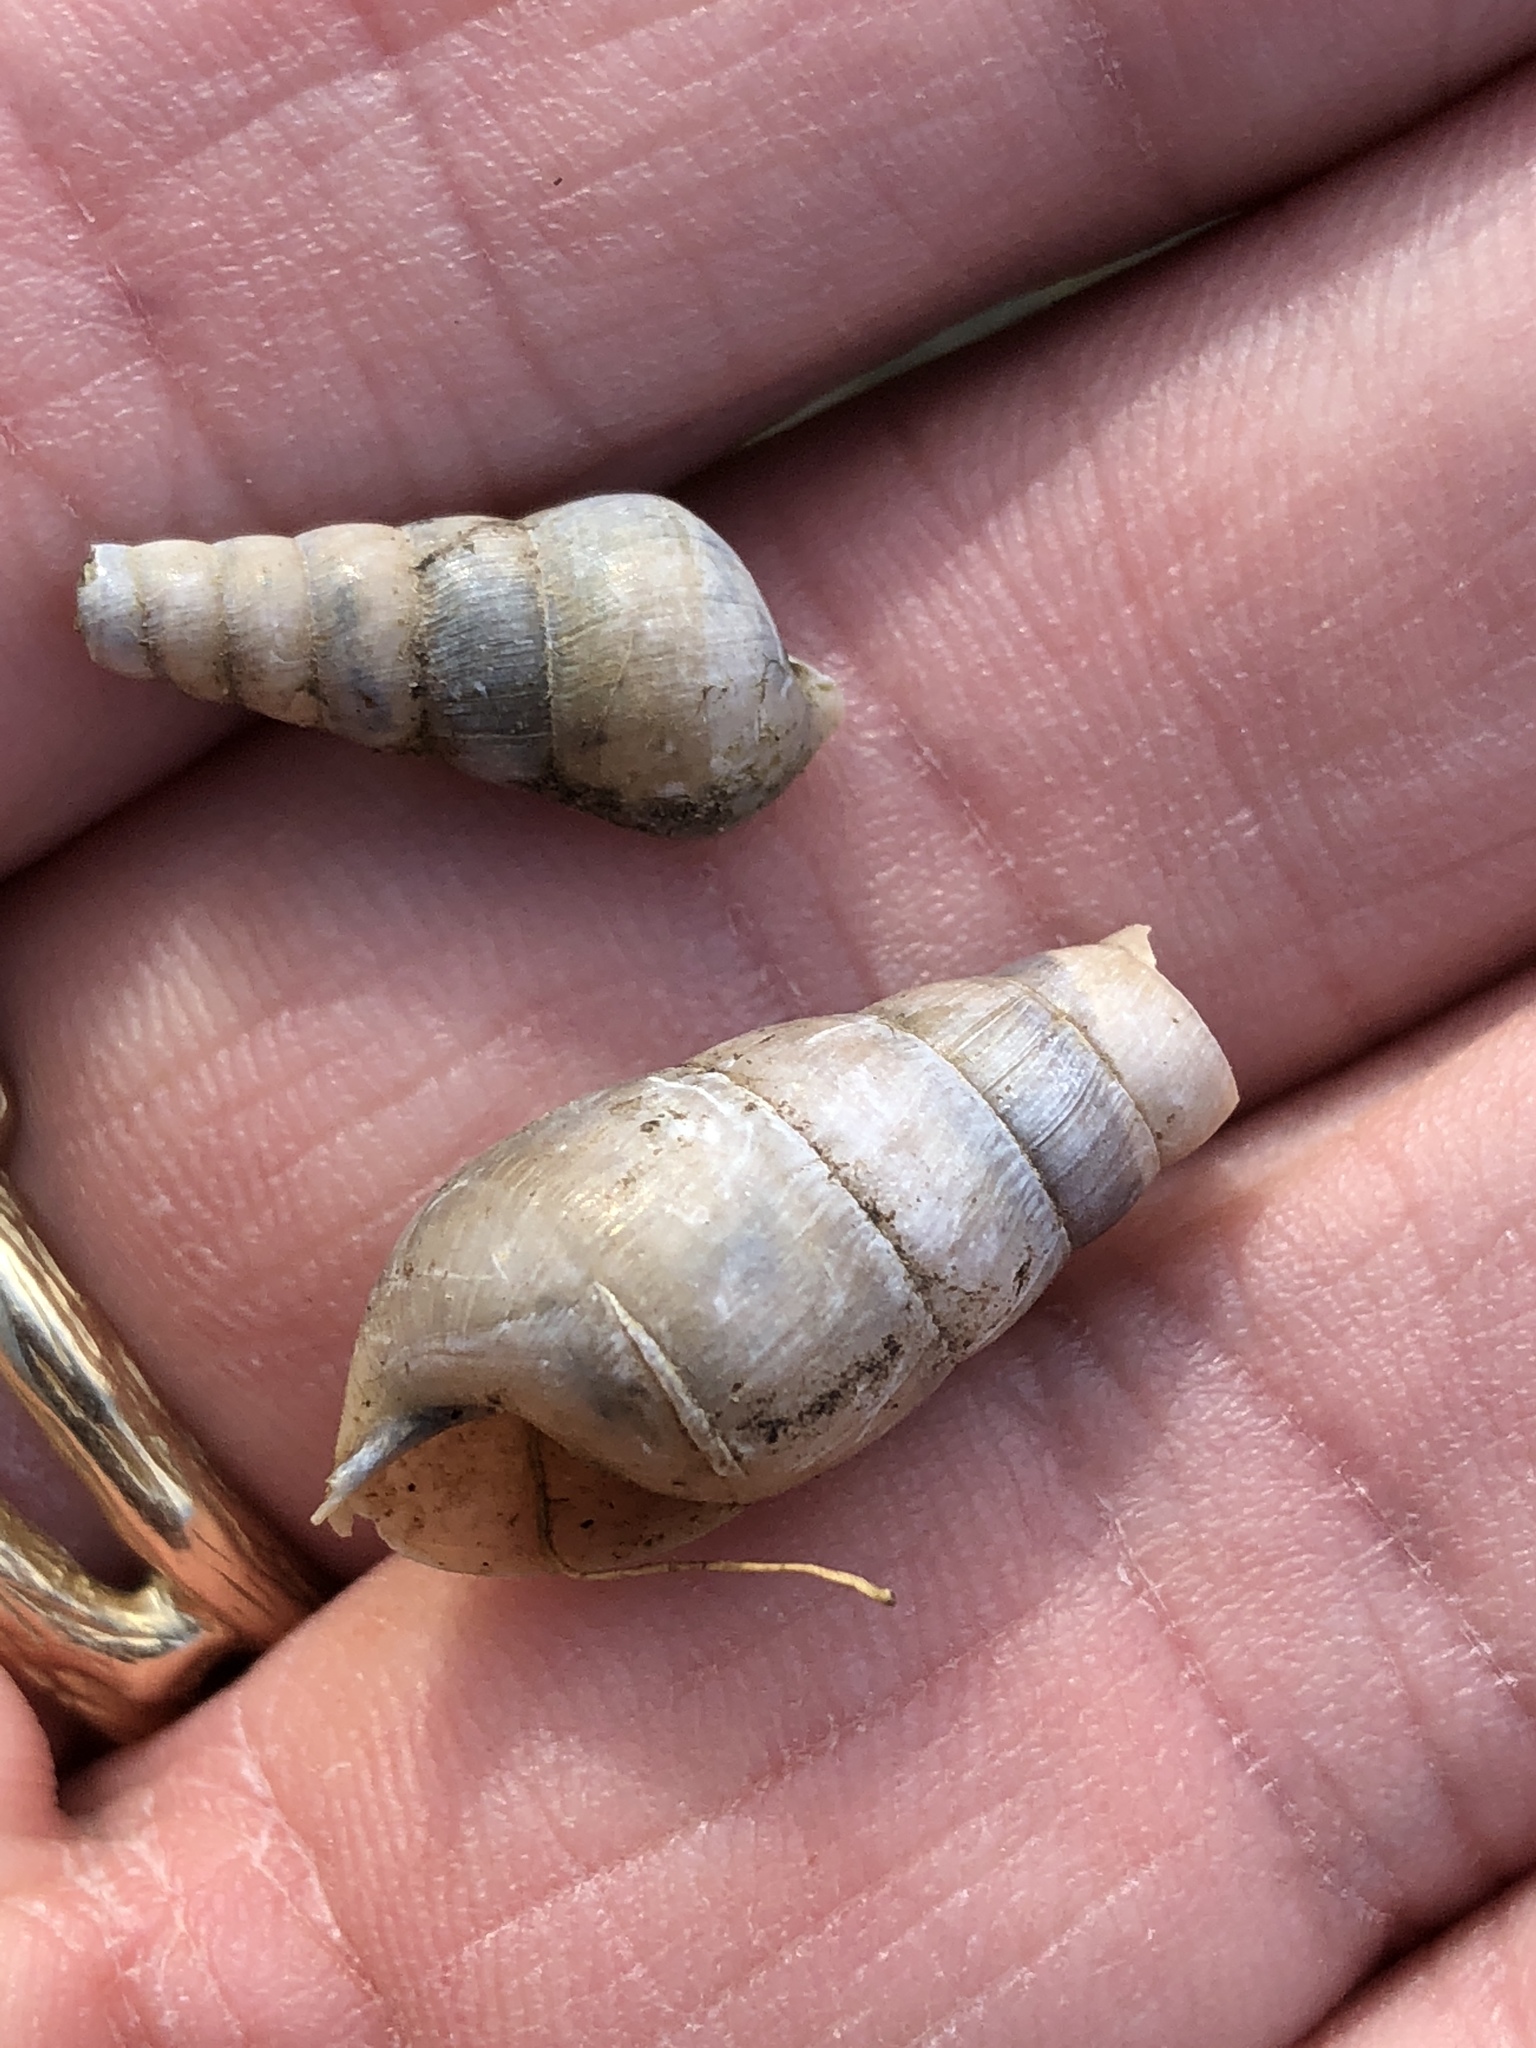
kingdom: Animalia
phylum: Mollusca
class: Gastropoda
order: Stylommatophora
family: Achatinidae
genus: Rumina
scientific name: Rumina decollata
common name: Decollate snail
